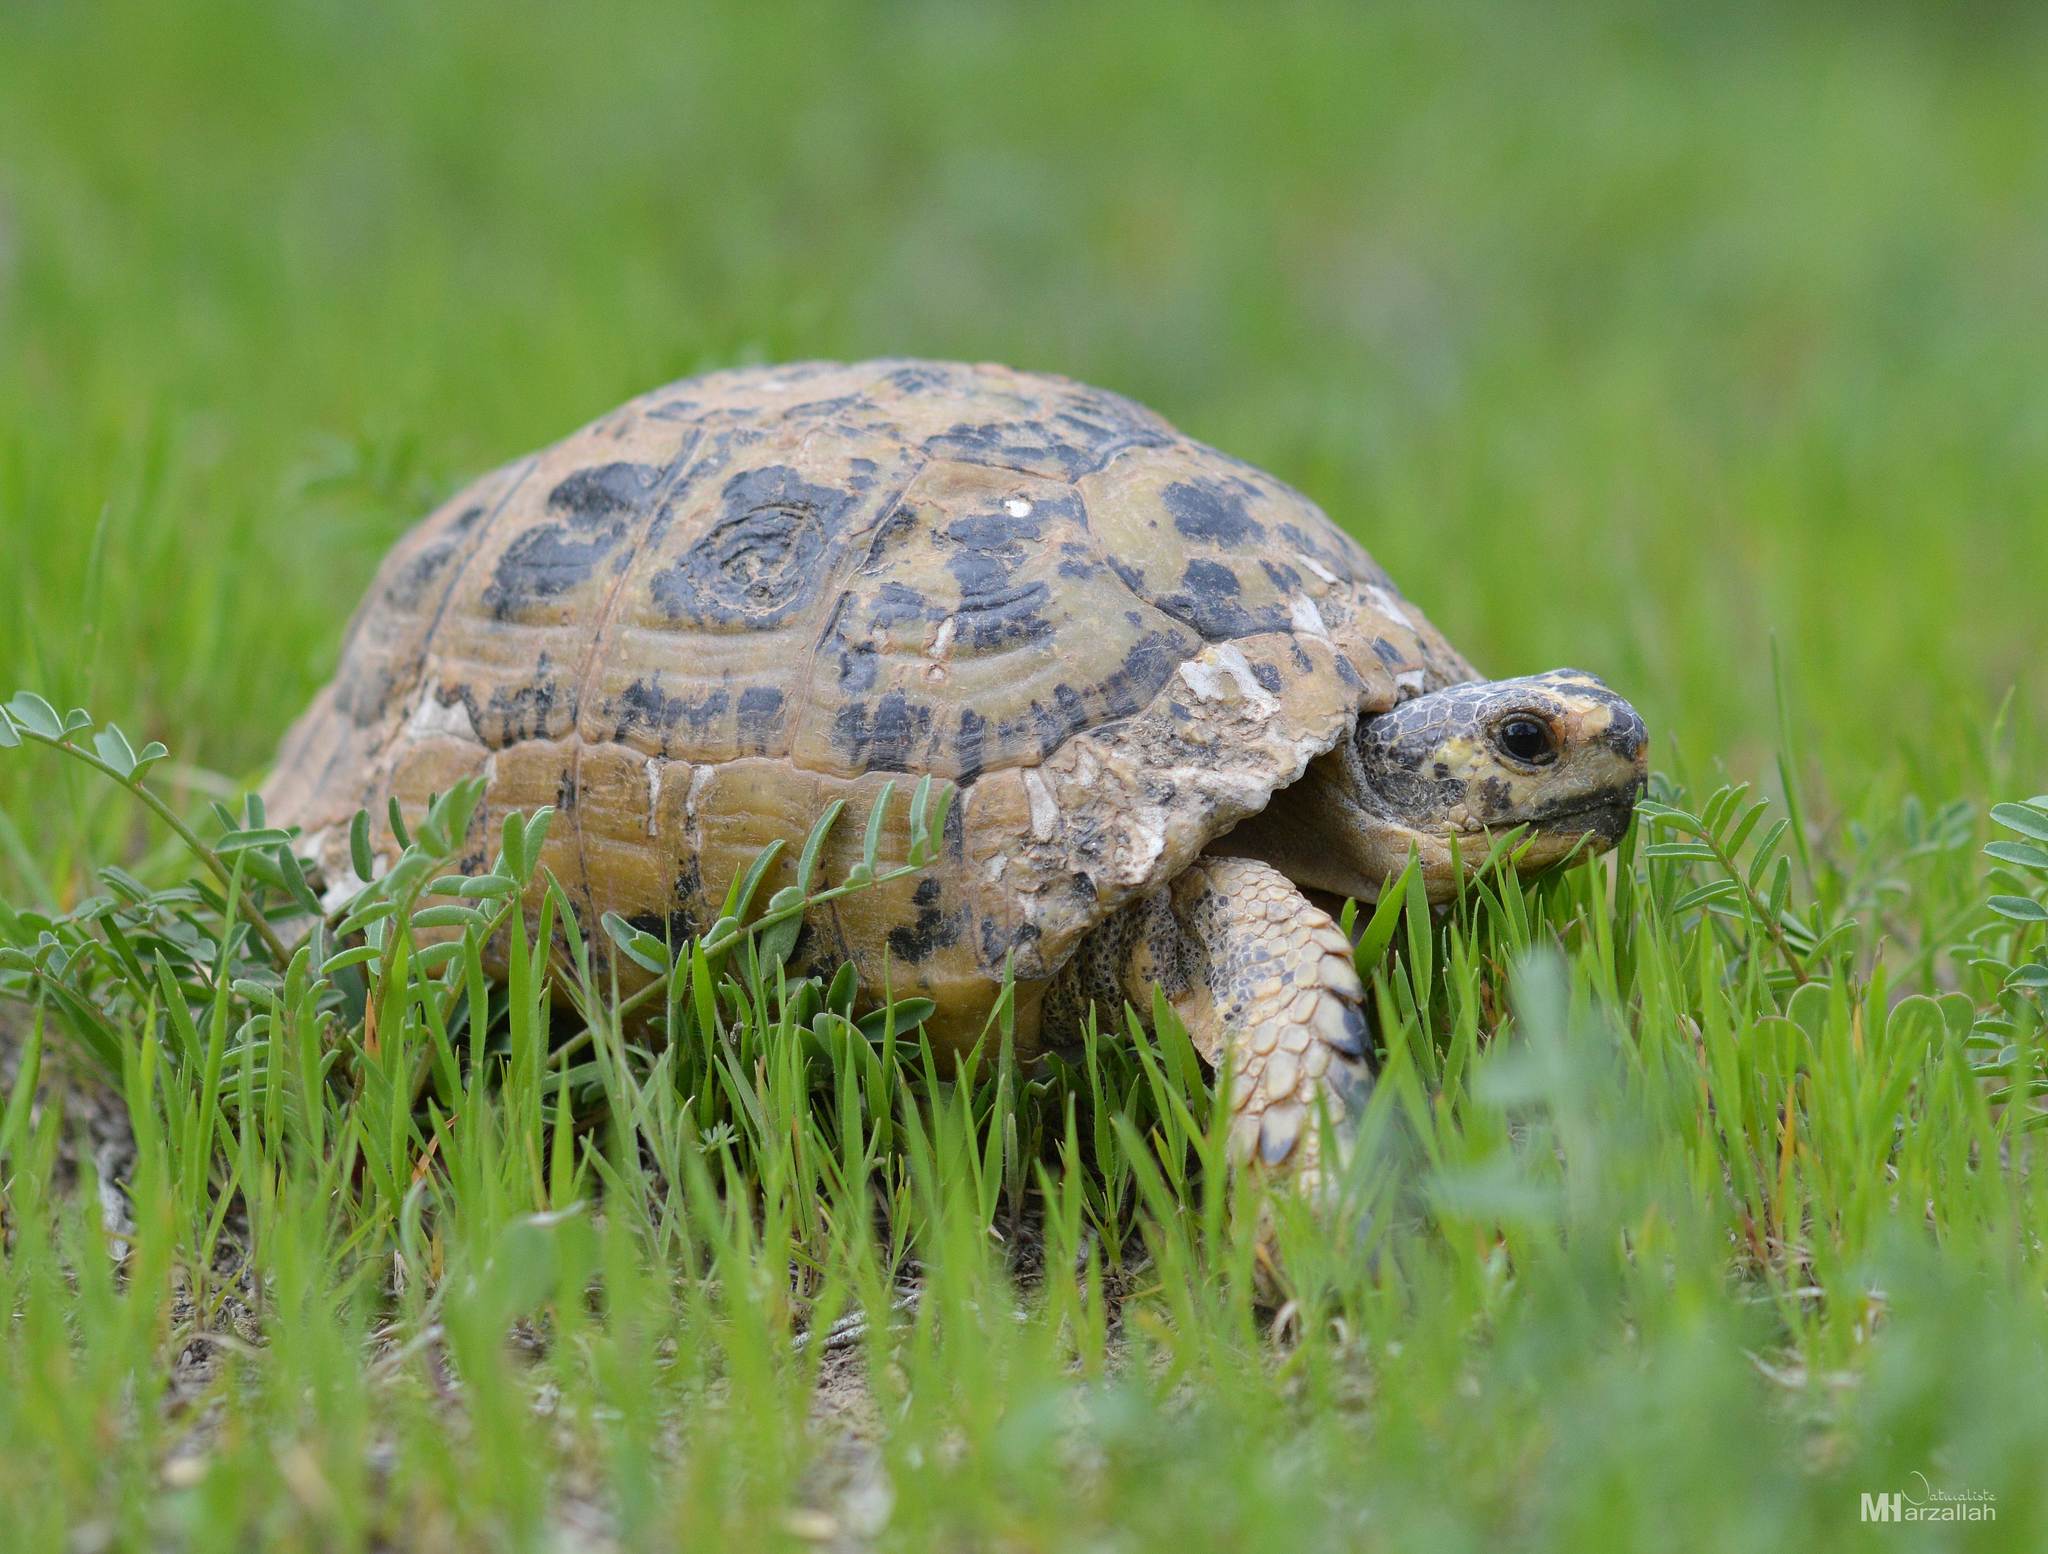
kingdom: Animalia
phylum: Chordata
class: Testudines
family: Testudinidae
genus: Testudo
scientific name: Testudo graeca
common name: Common tortoise
